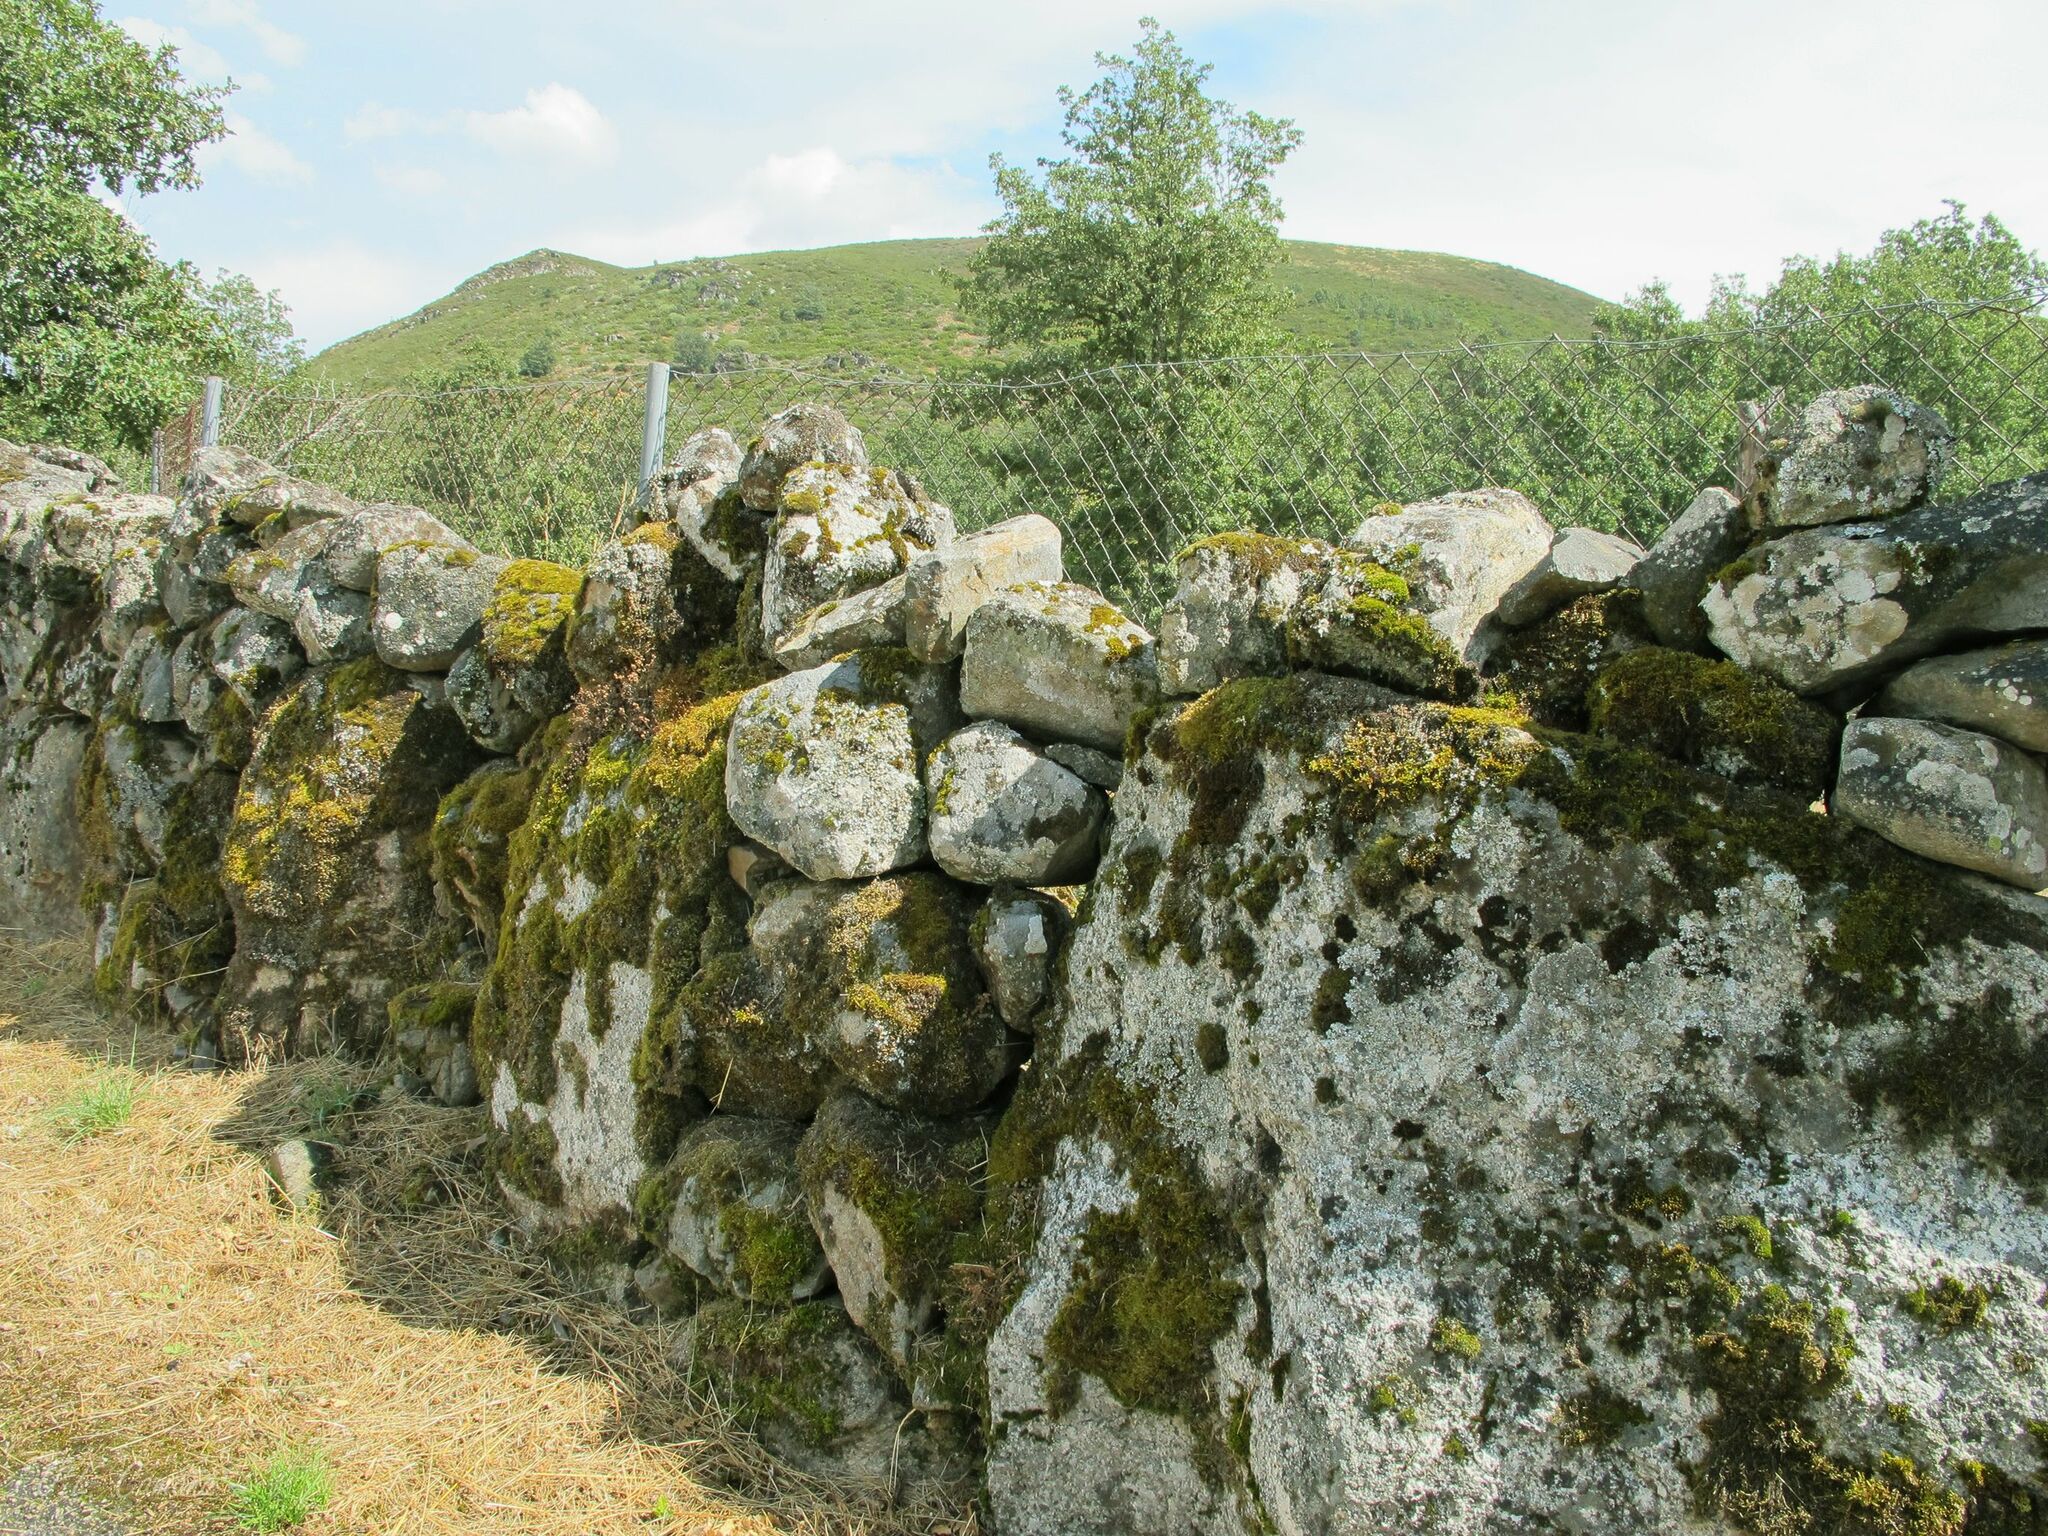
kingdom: Plantae
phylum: Bryophyta
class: Bryopsida
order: Grimmiales
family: Grimmiaceae
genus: Bucklandiella
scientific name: Bucklandiella heterosticha
